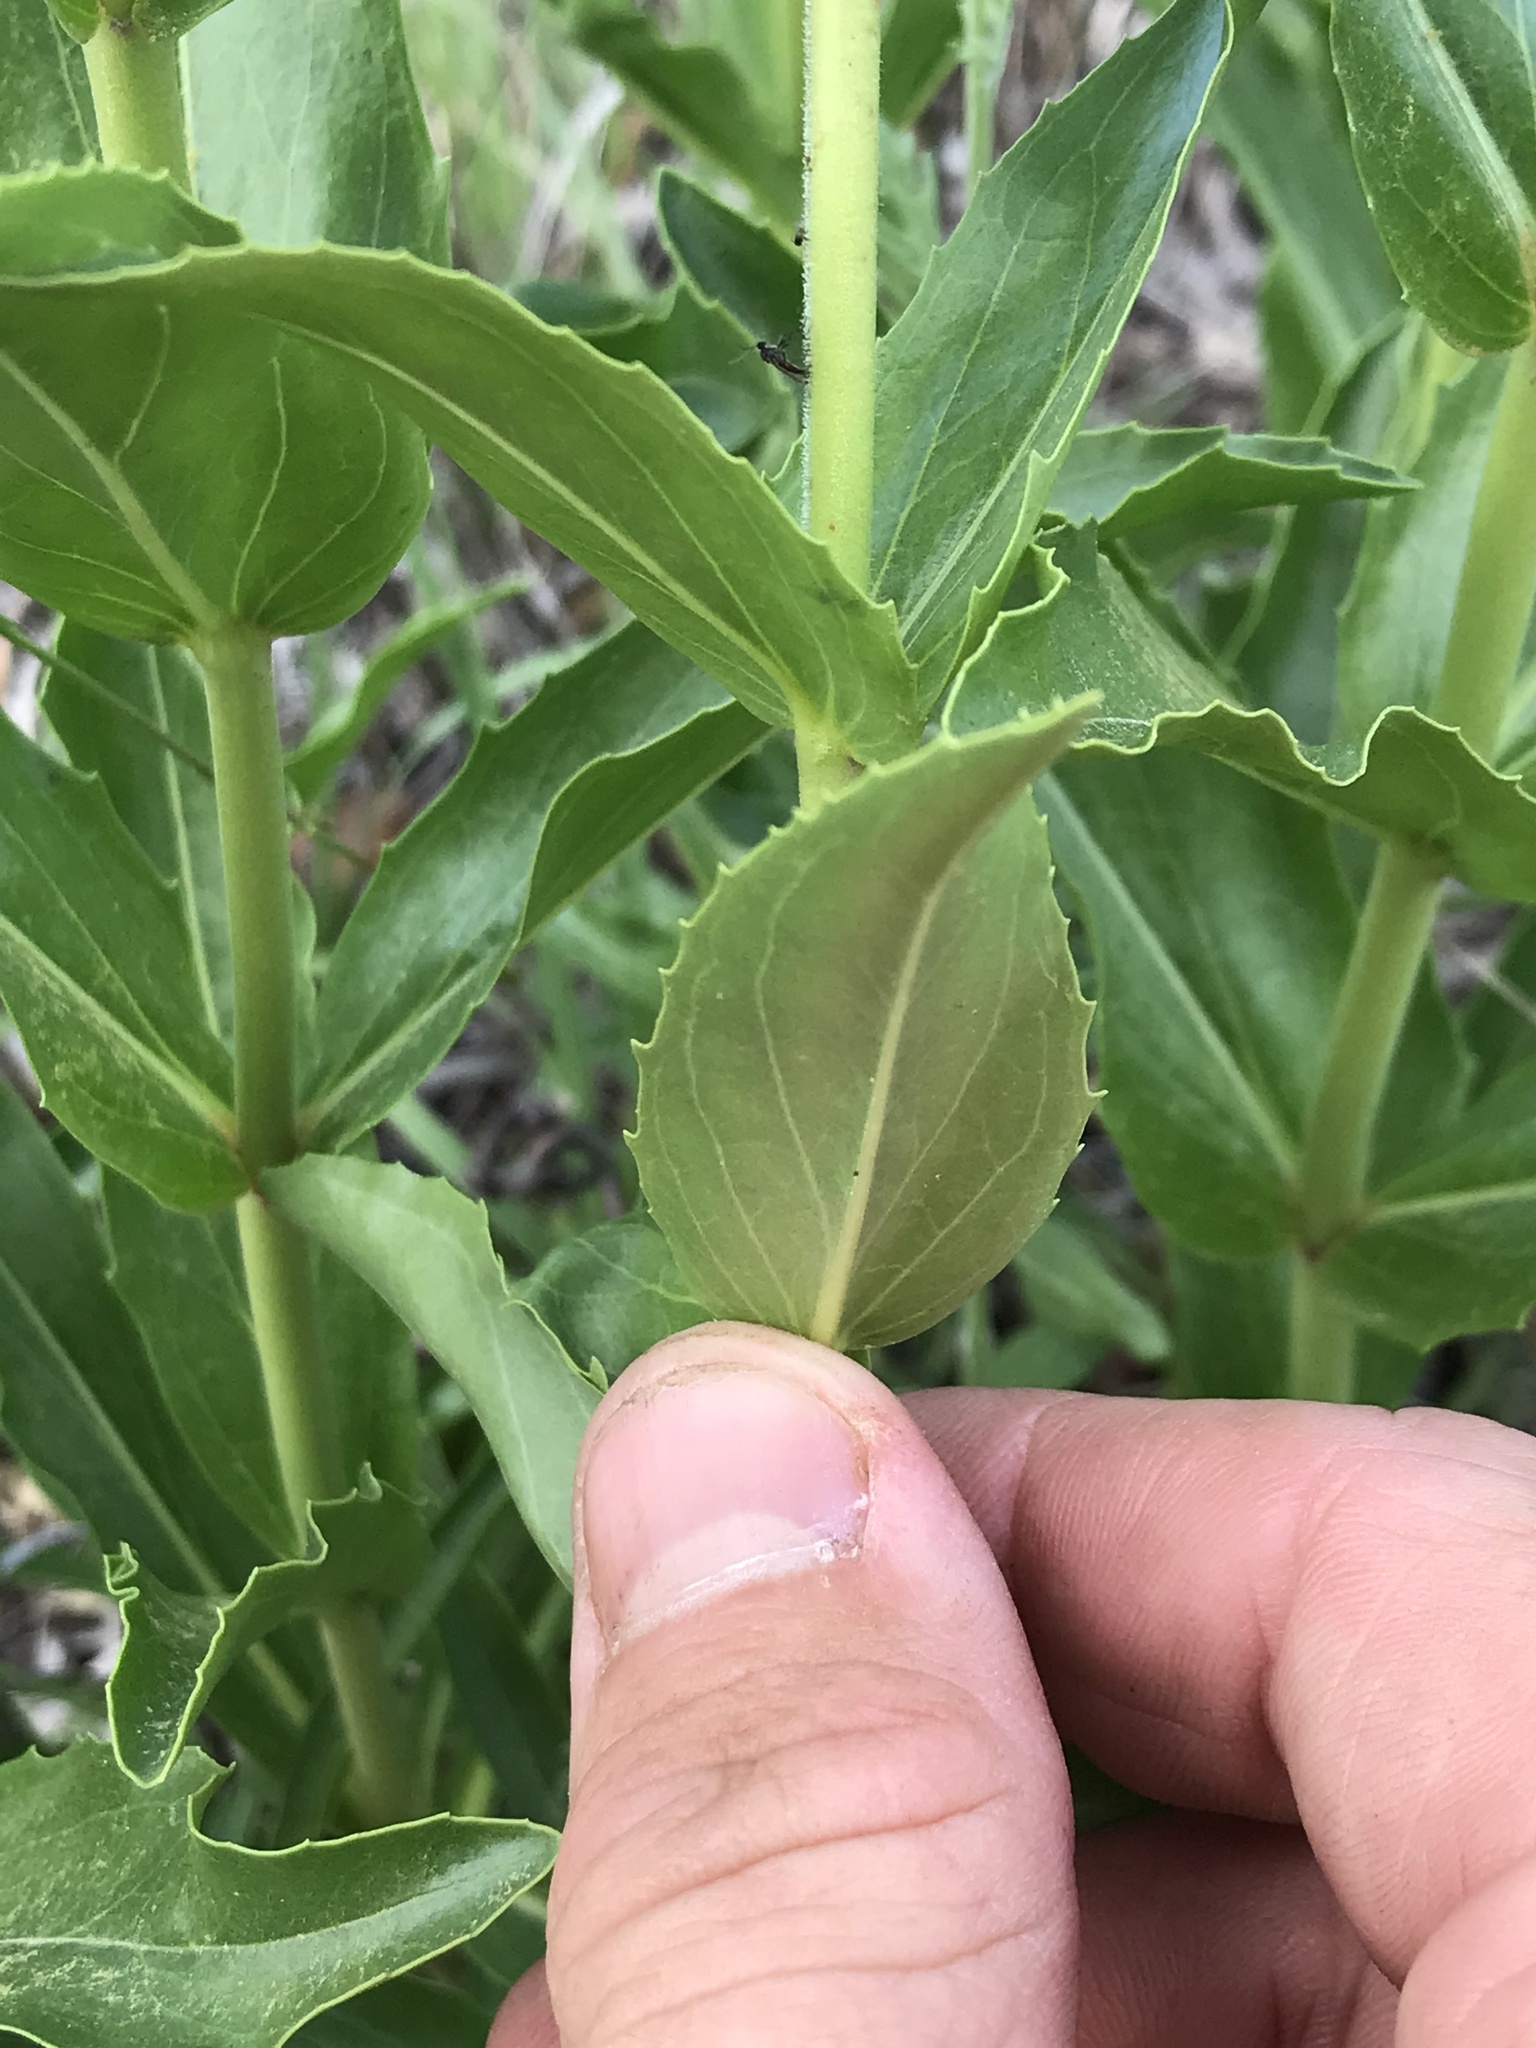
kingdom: Plantae
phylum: Tracheophyta
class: Magnoliopsida
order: Lamiales
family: Plantaginaceae
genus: Penstemon
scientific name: Penstemon cobaea
